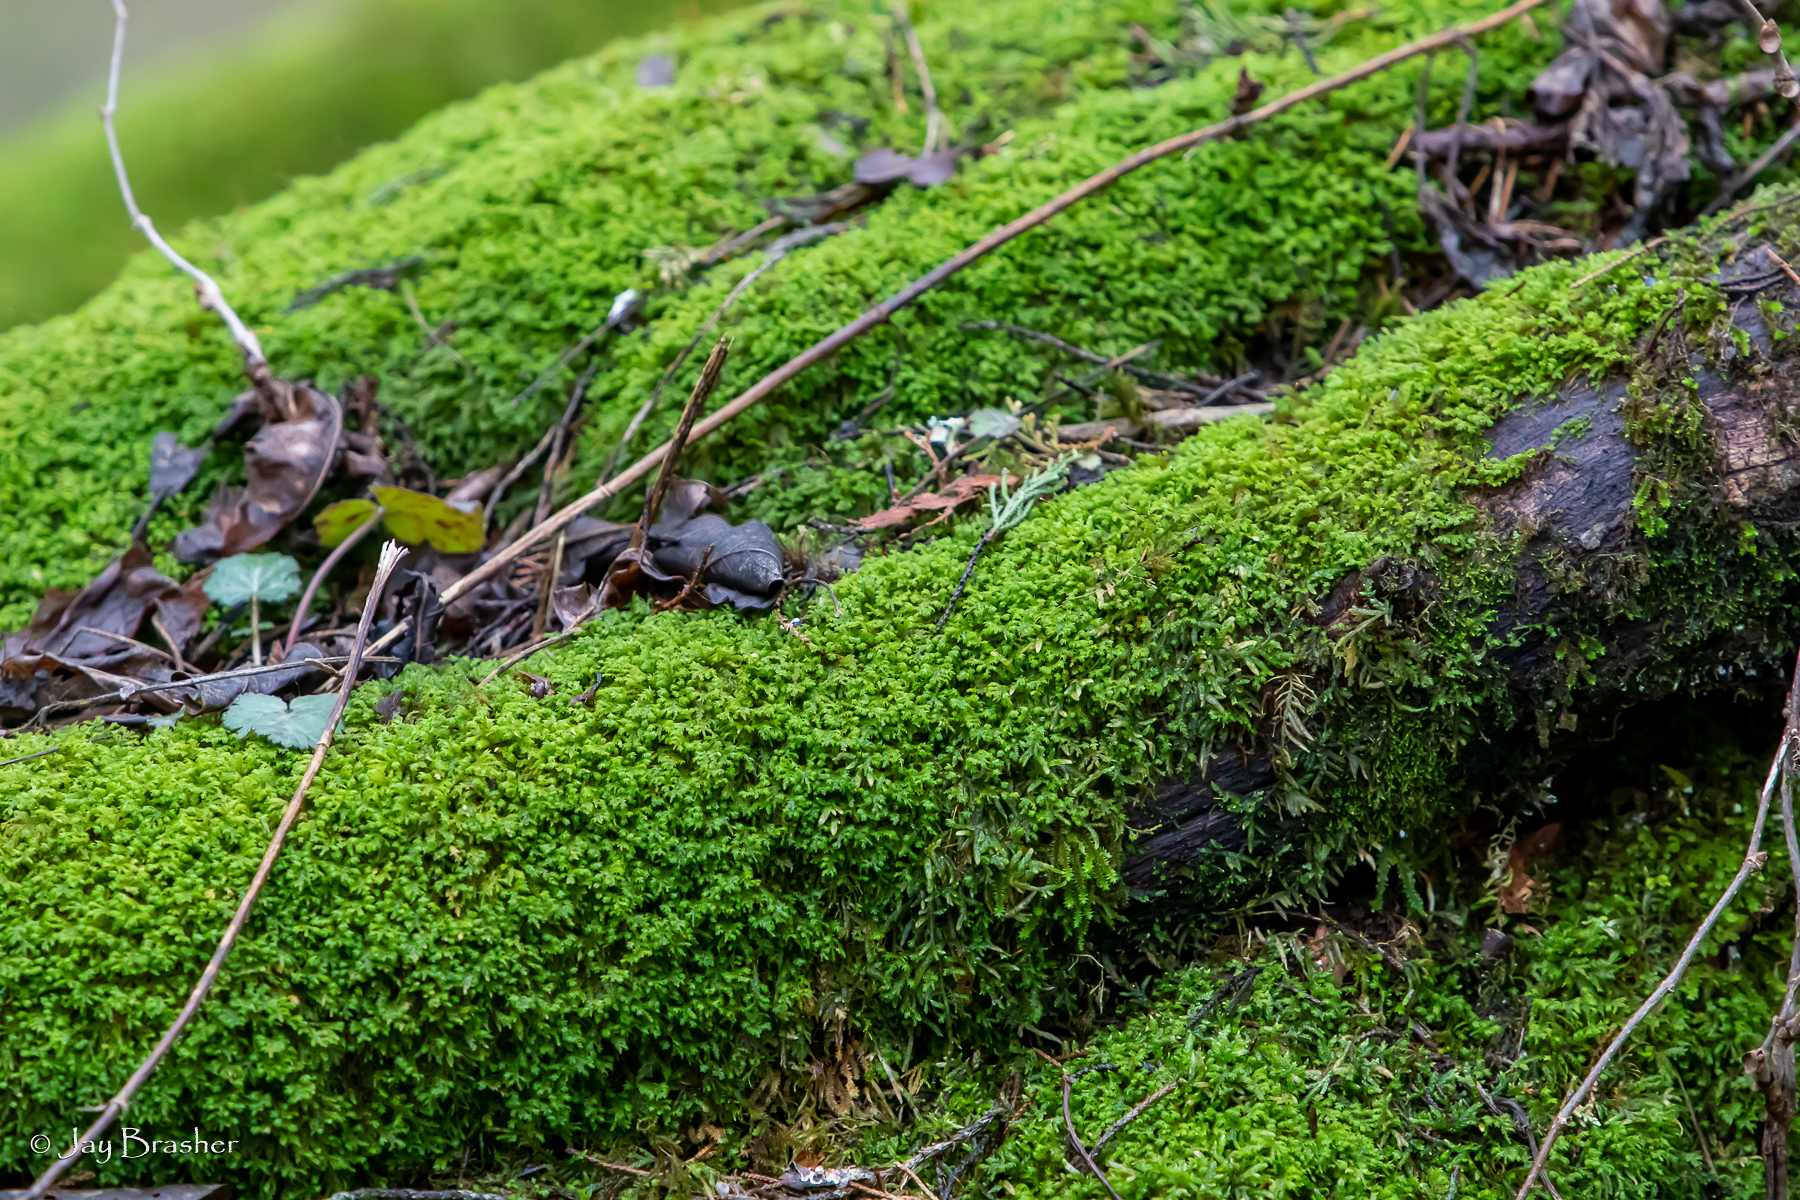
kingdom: Plantae
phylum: Bryophyta
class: Bryopsida
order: Hypnales
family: Neckeraceae
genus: Pseudanomodon
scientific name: Pseudanomodon attenuatus
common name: Tree-skirt moss
